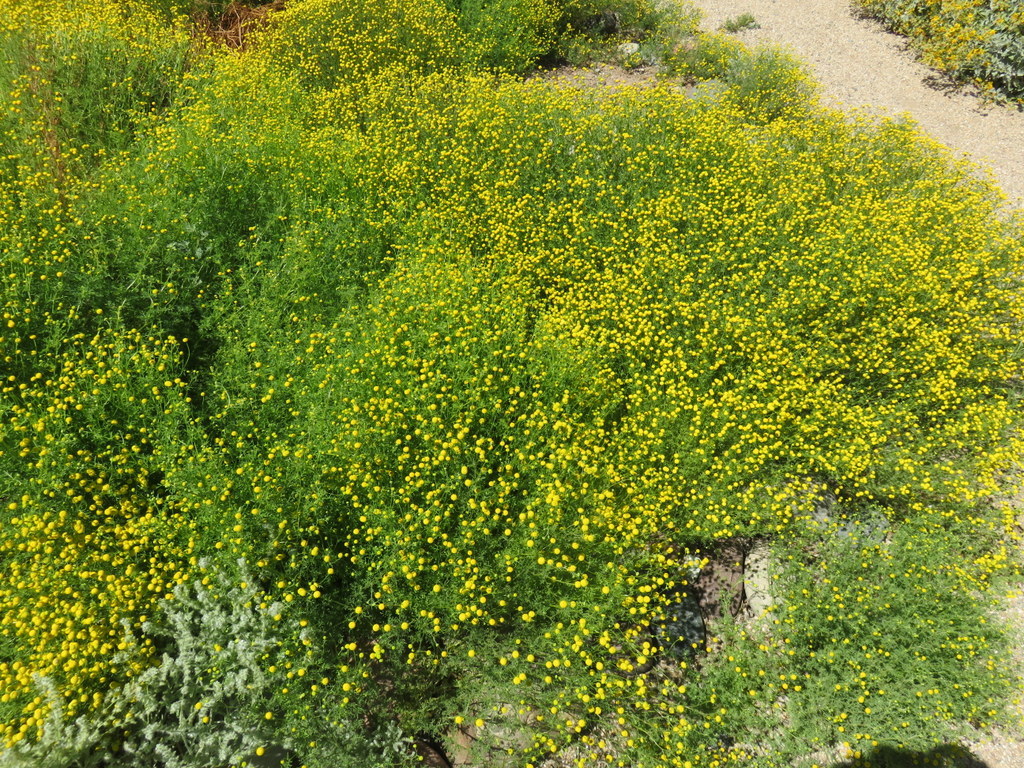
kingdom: Plantae
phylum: Tracheophyta
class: Magnoliopsida
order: Asterales
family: Asteraceae
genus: Oncosiphon
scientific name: Oncosiphon pilulifer
